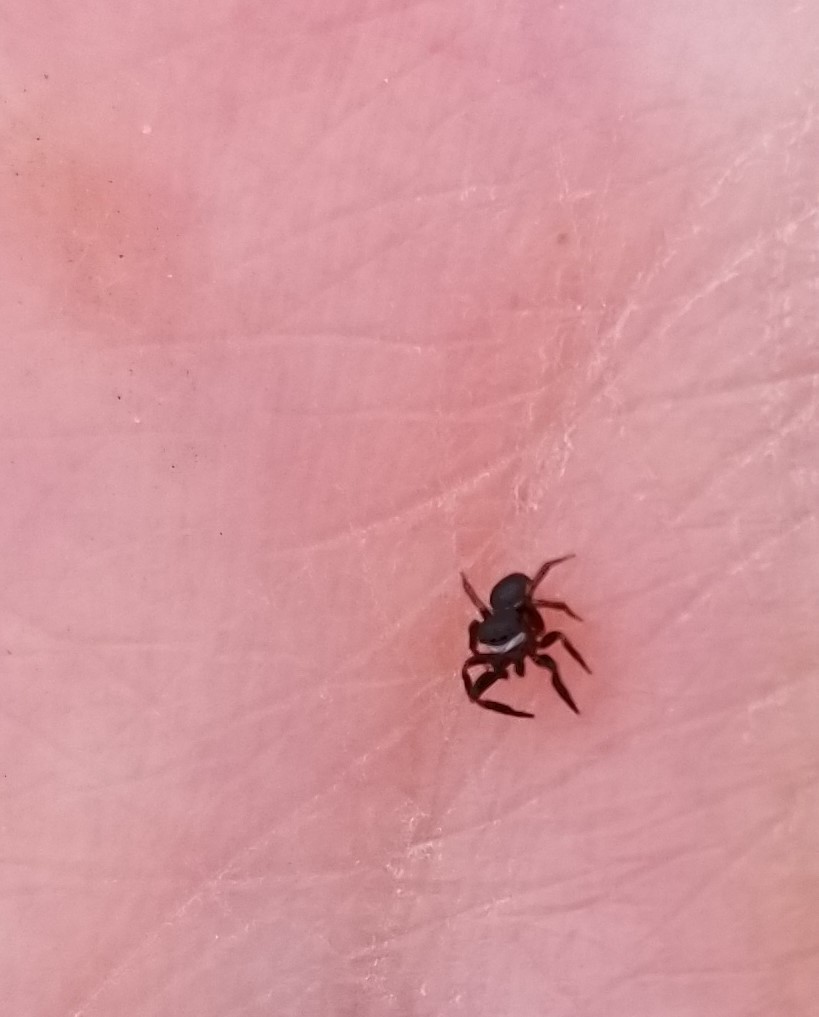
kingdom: Animalia
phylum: Arthropoda
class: Arachnida
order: Araneae
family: Salticidae
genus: Chalcoscirtus
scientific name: Chalcoscirtus diminutus
